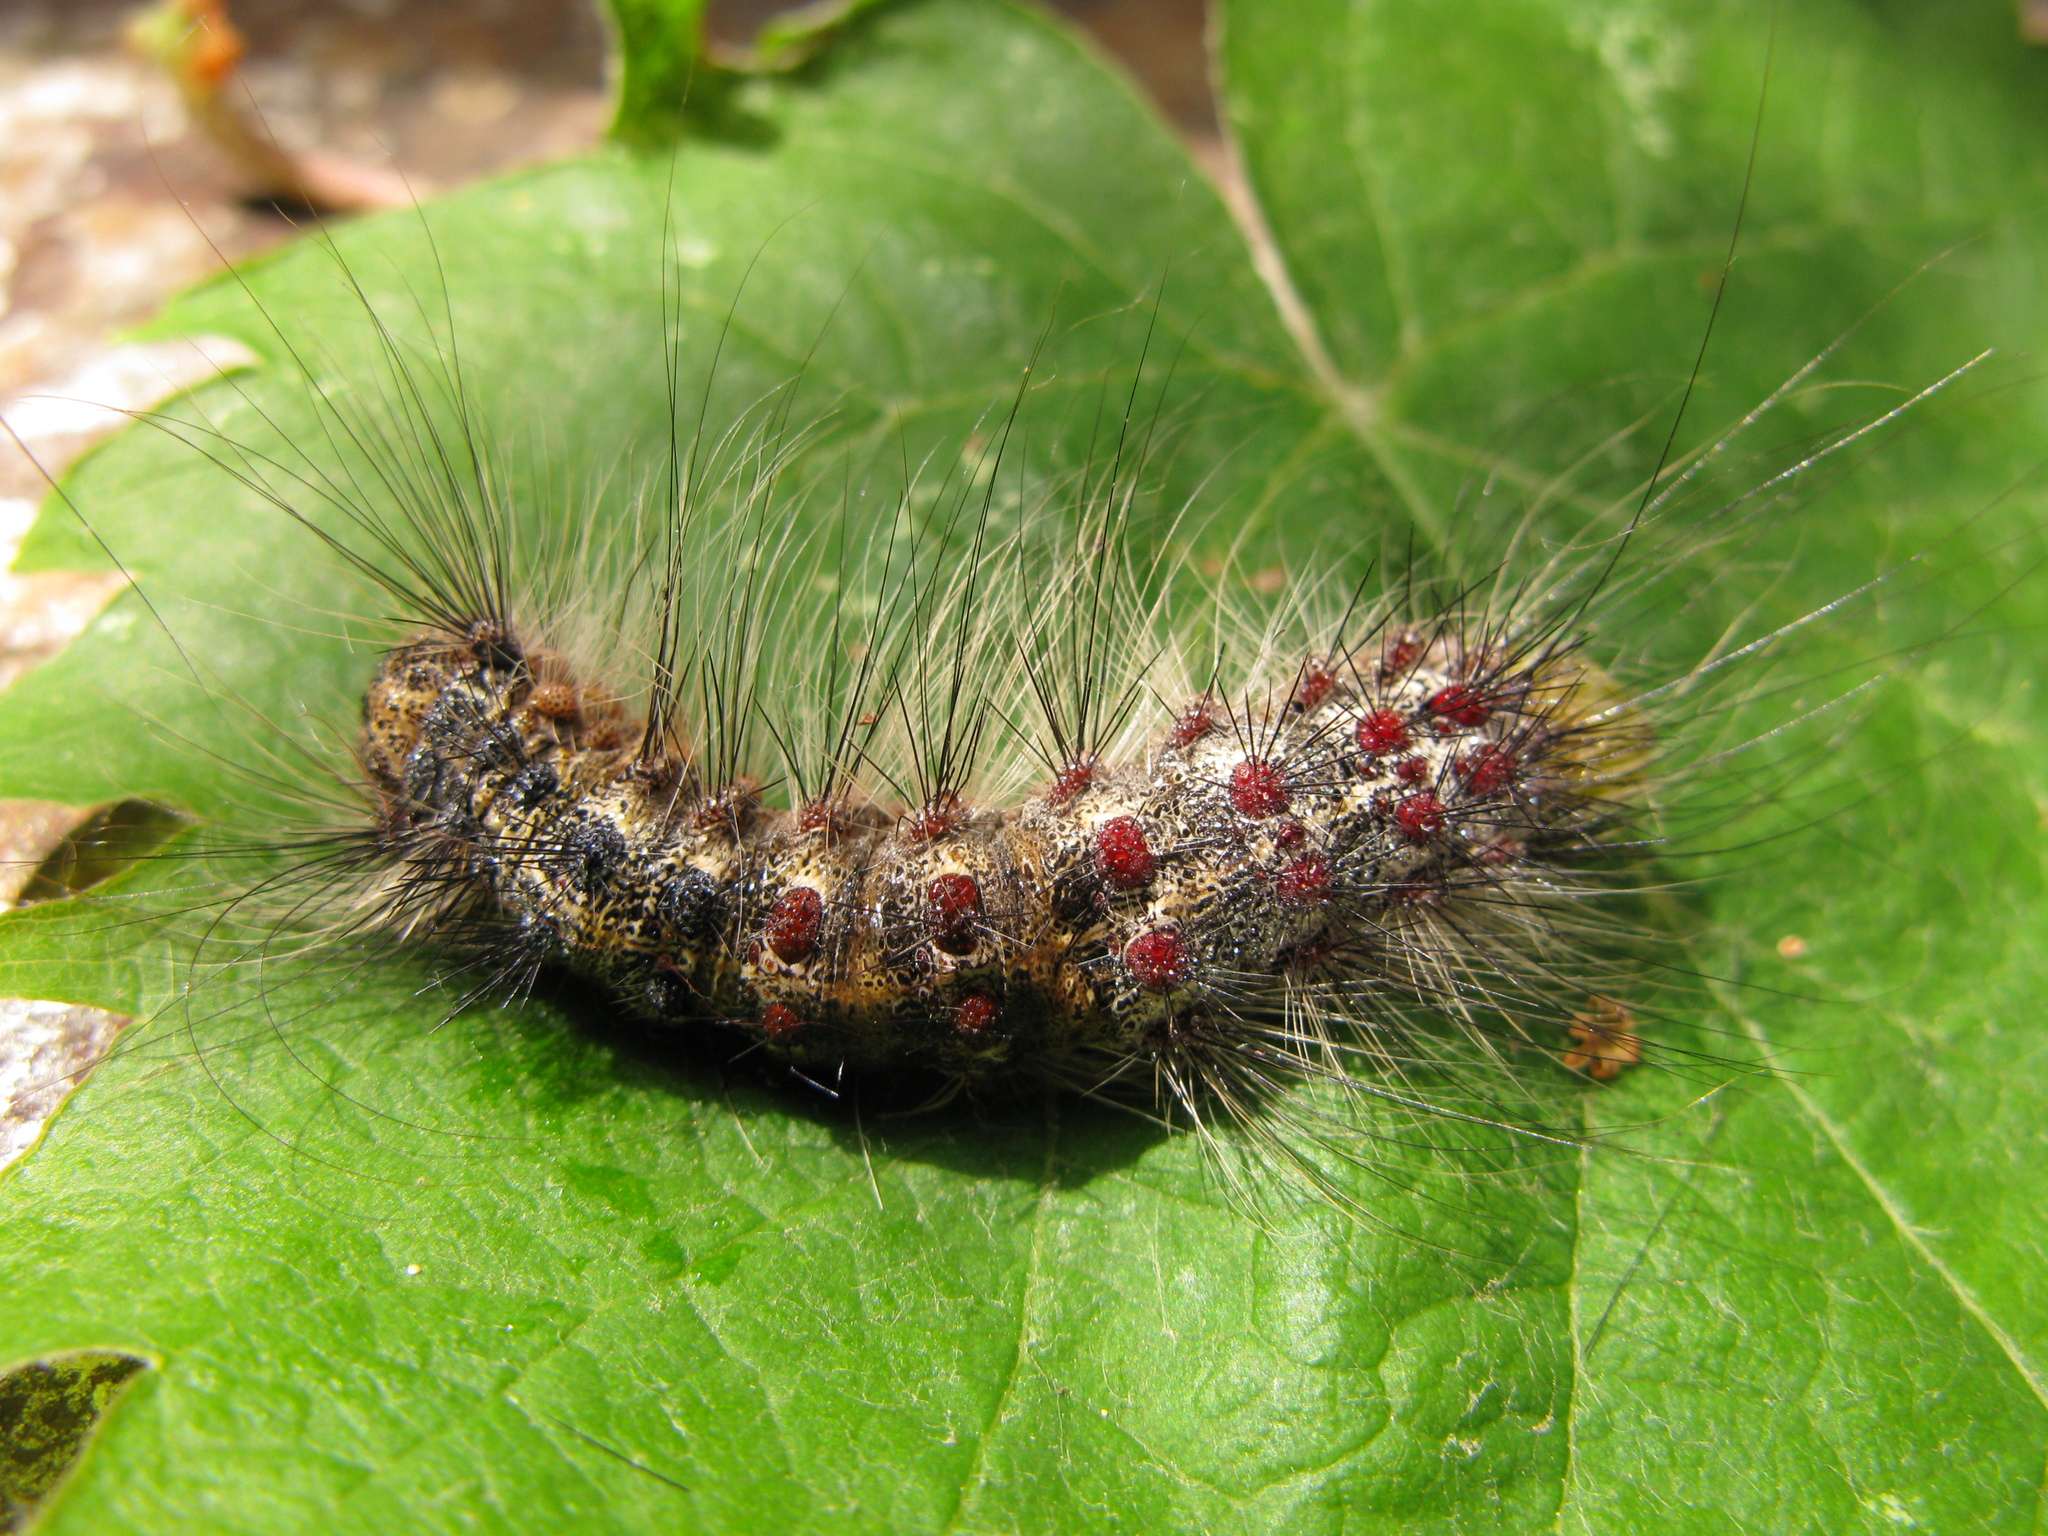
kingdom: Animalia
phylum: Arthropoda
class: Insecta
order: Lepidoptera
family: Erebidae
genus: Lymantria
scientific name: Lymantria dispar
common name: Gypsy moth
